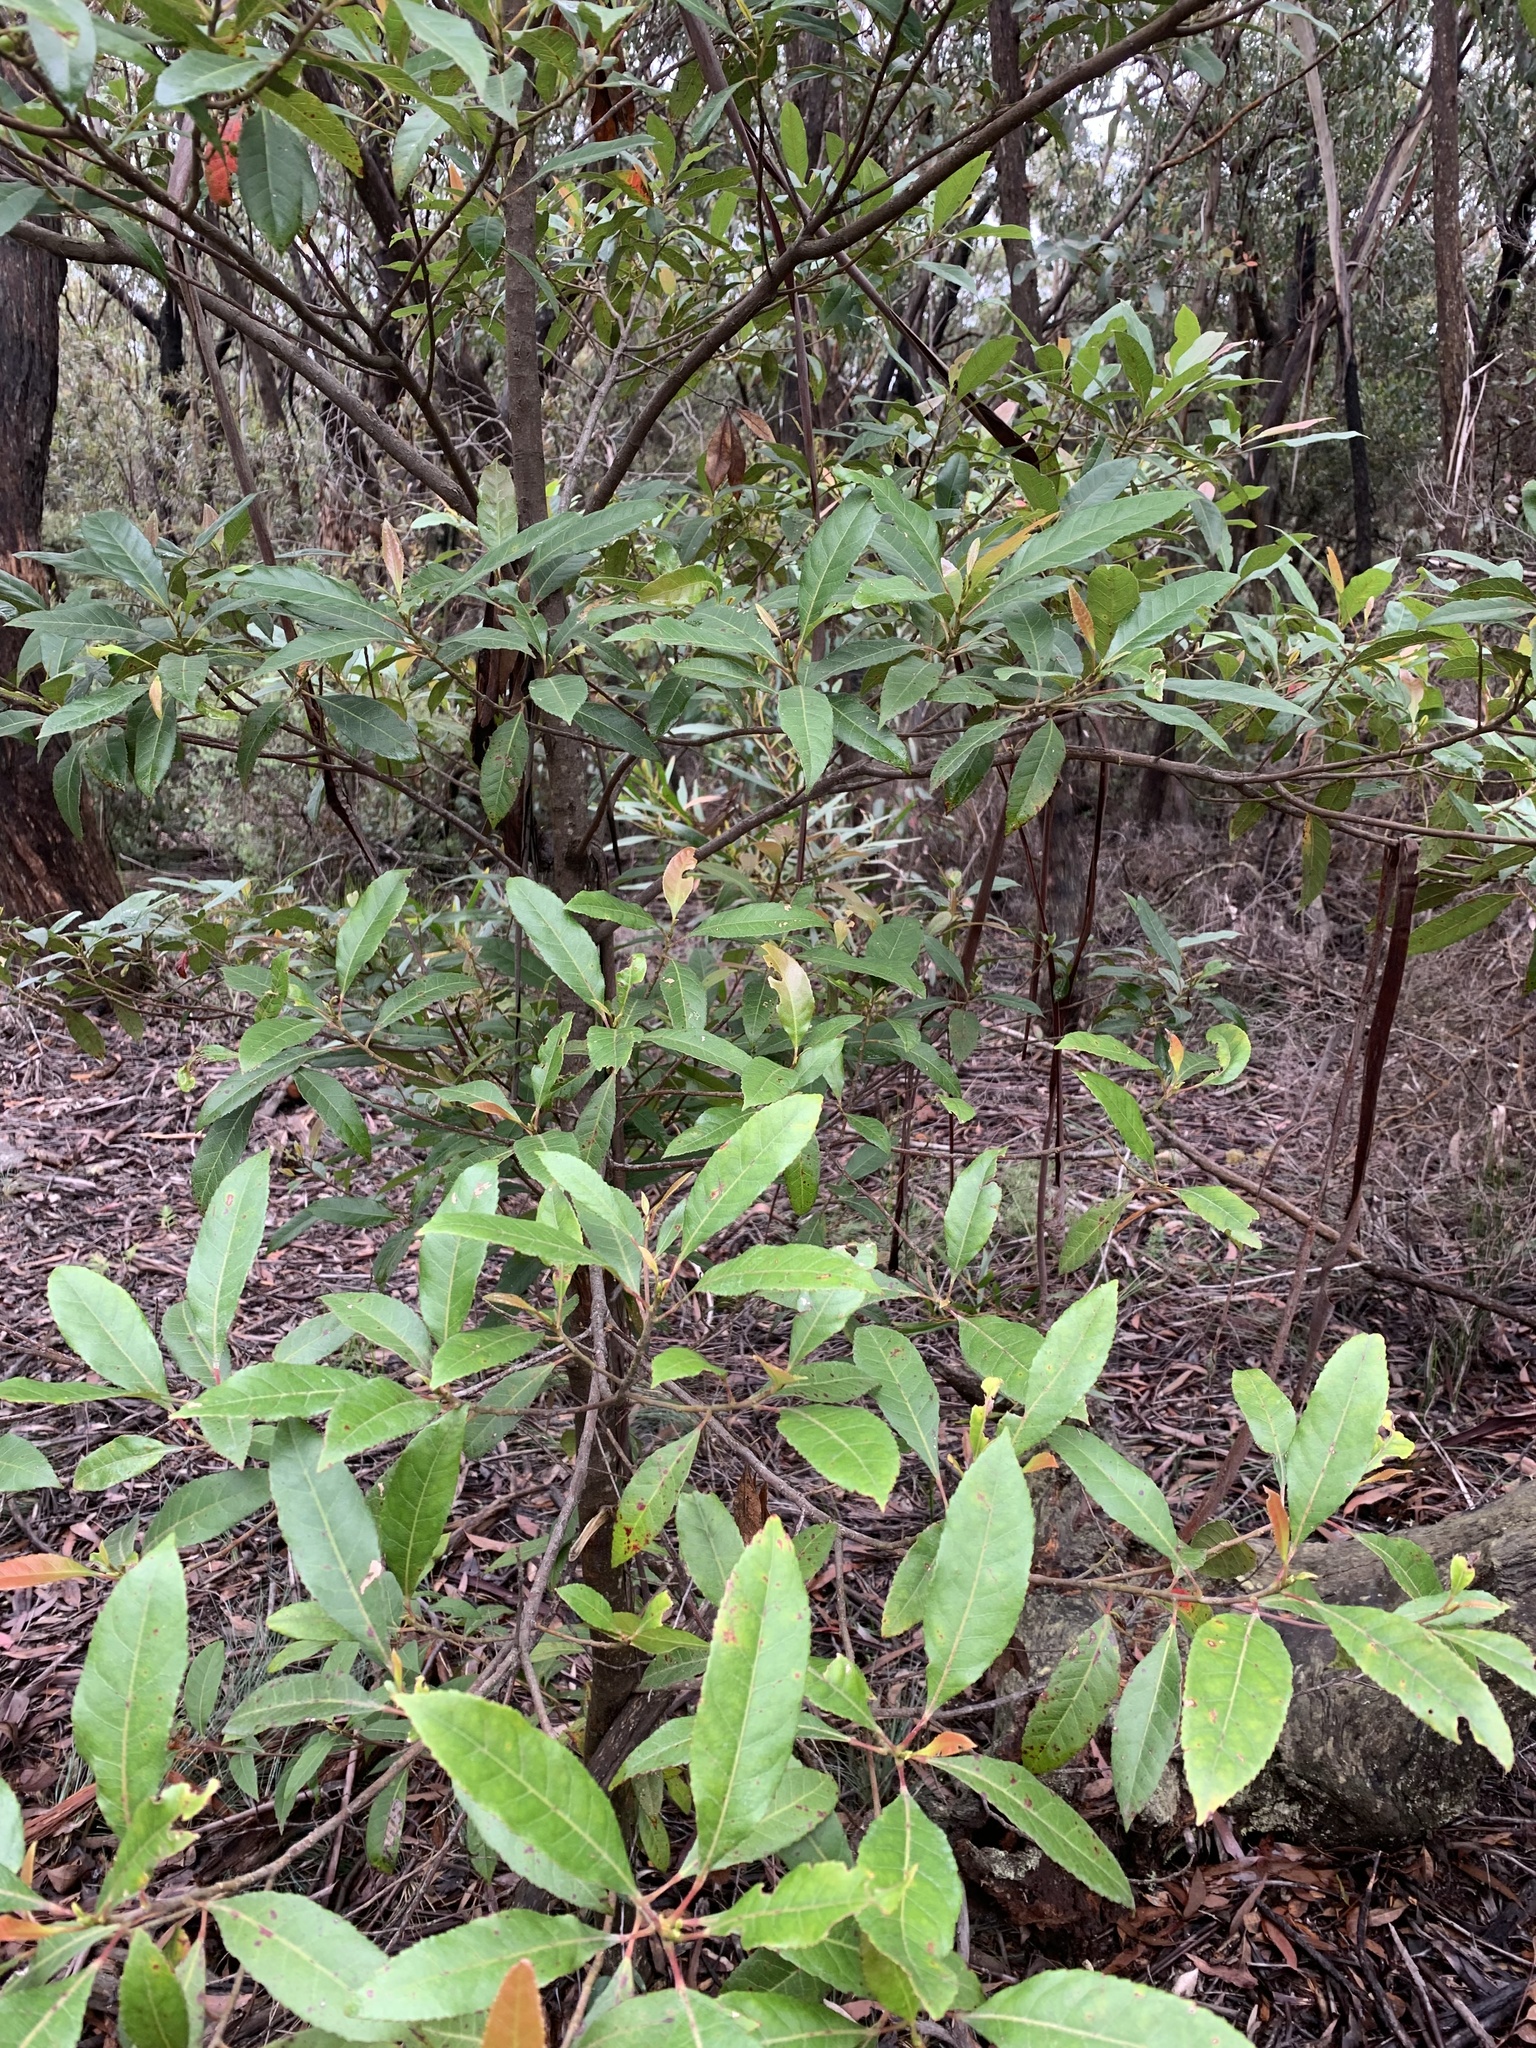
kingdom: Plantae
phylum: Tracheophyta
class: Magnoliopsida
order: Oxalidales
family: Elaeocarpaceae
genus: Elaeocarpus
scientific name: Elaeocarpus reticulatus
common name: Ash quandong
